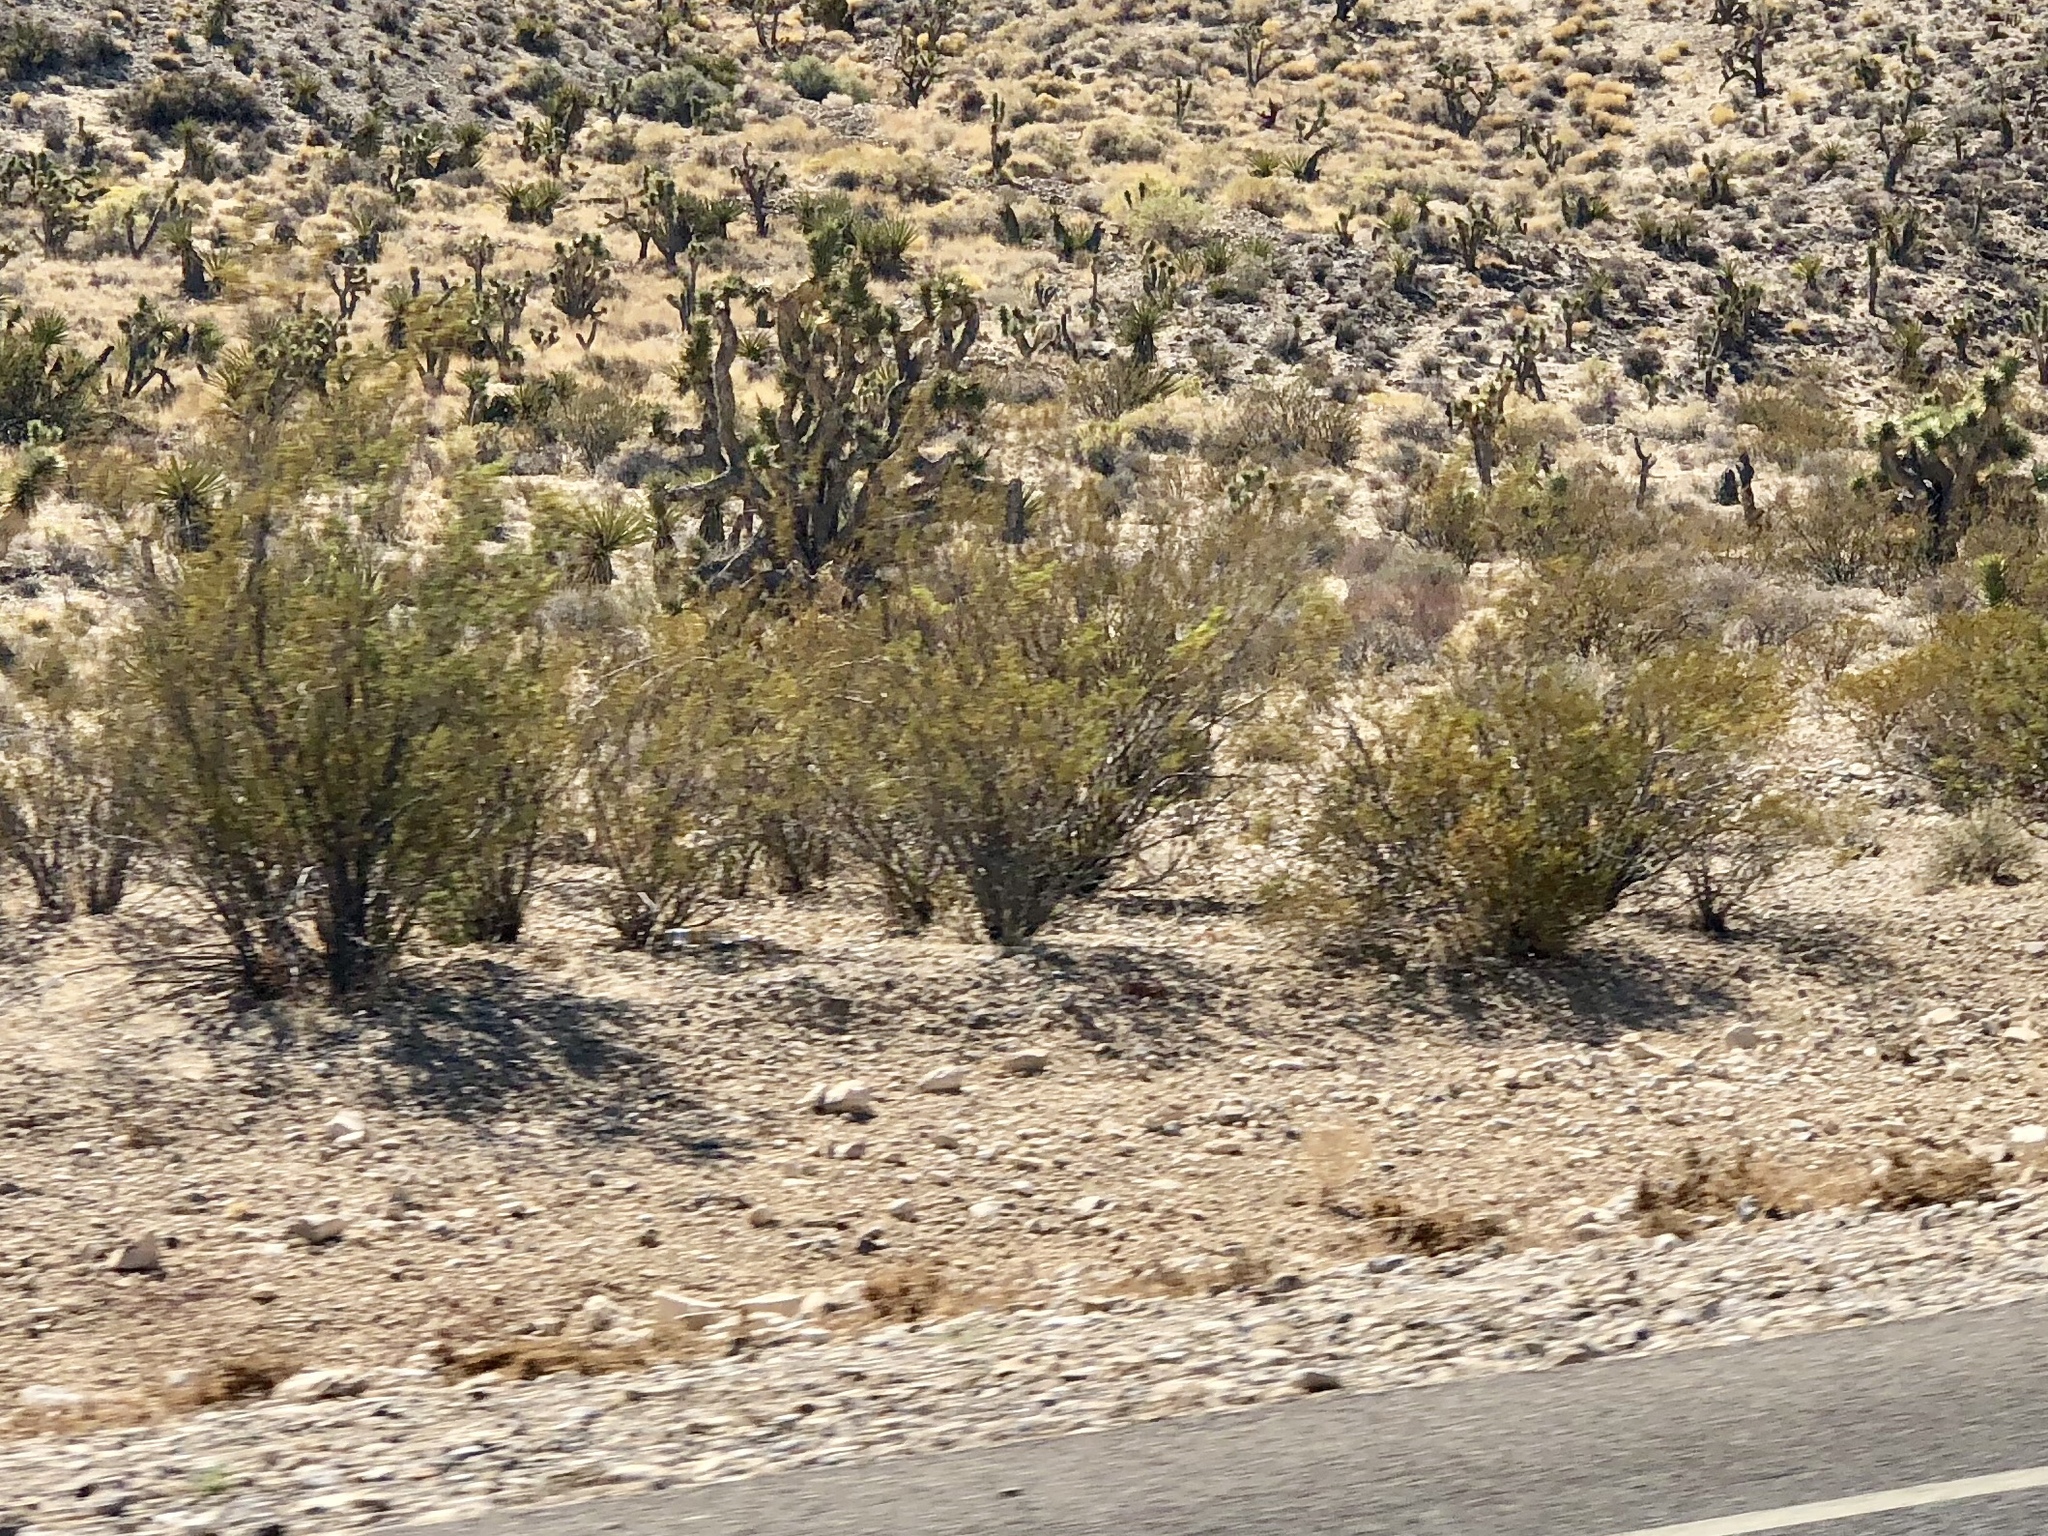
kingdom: Plantae
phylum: Tracheophyta
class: Magnoliopsida
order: Zygophyllales
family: Zygophyllaceae
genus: Larrea
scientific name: Larrea tridentata
